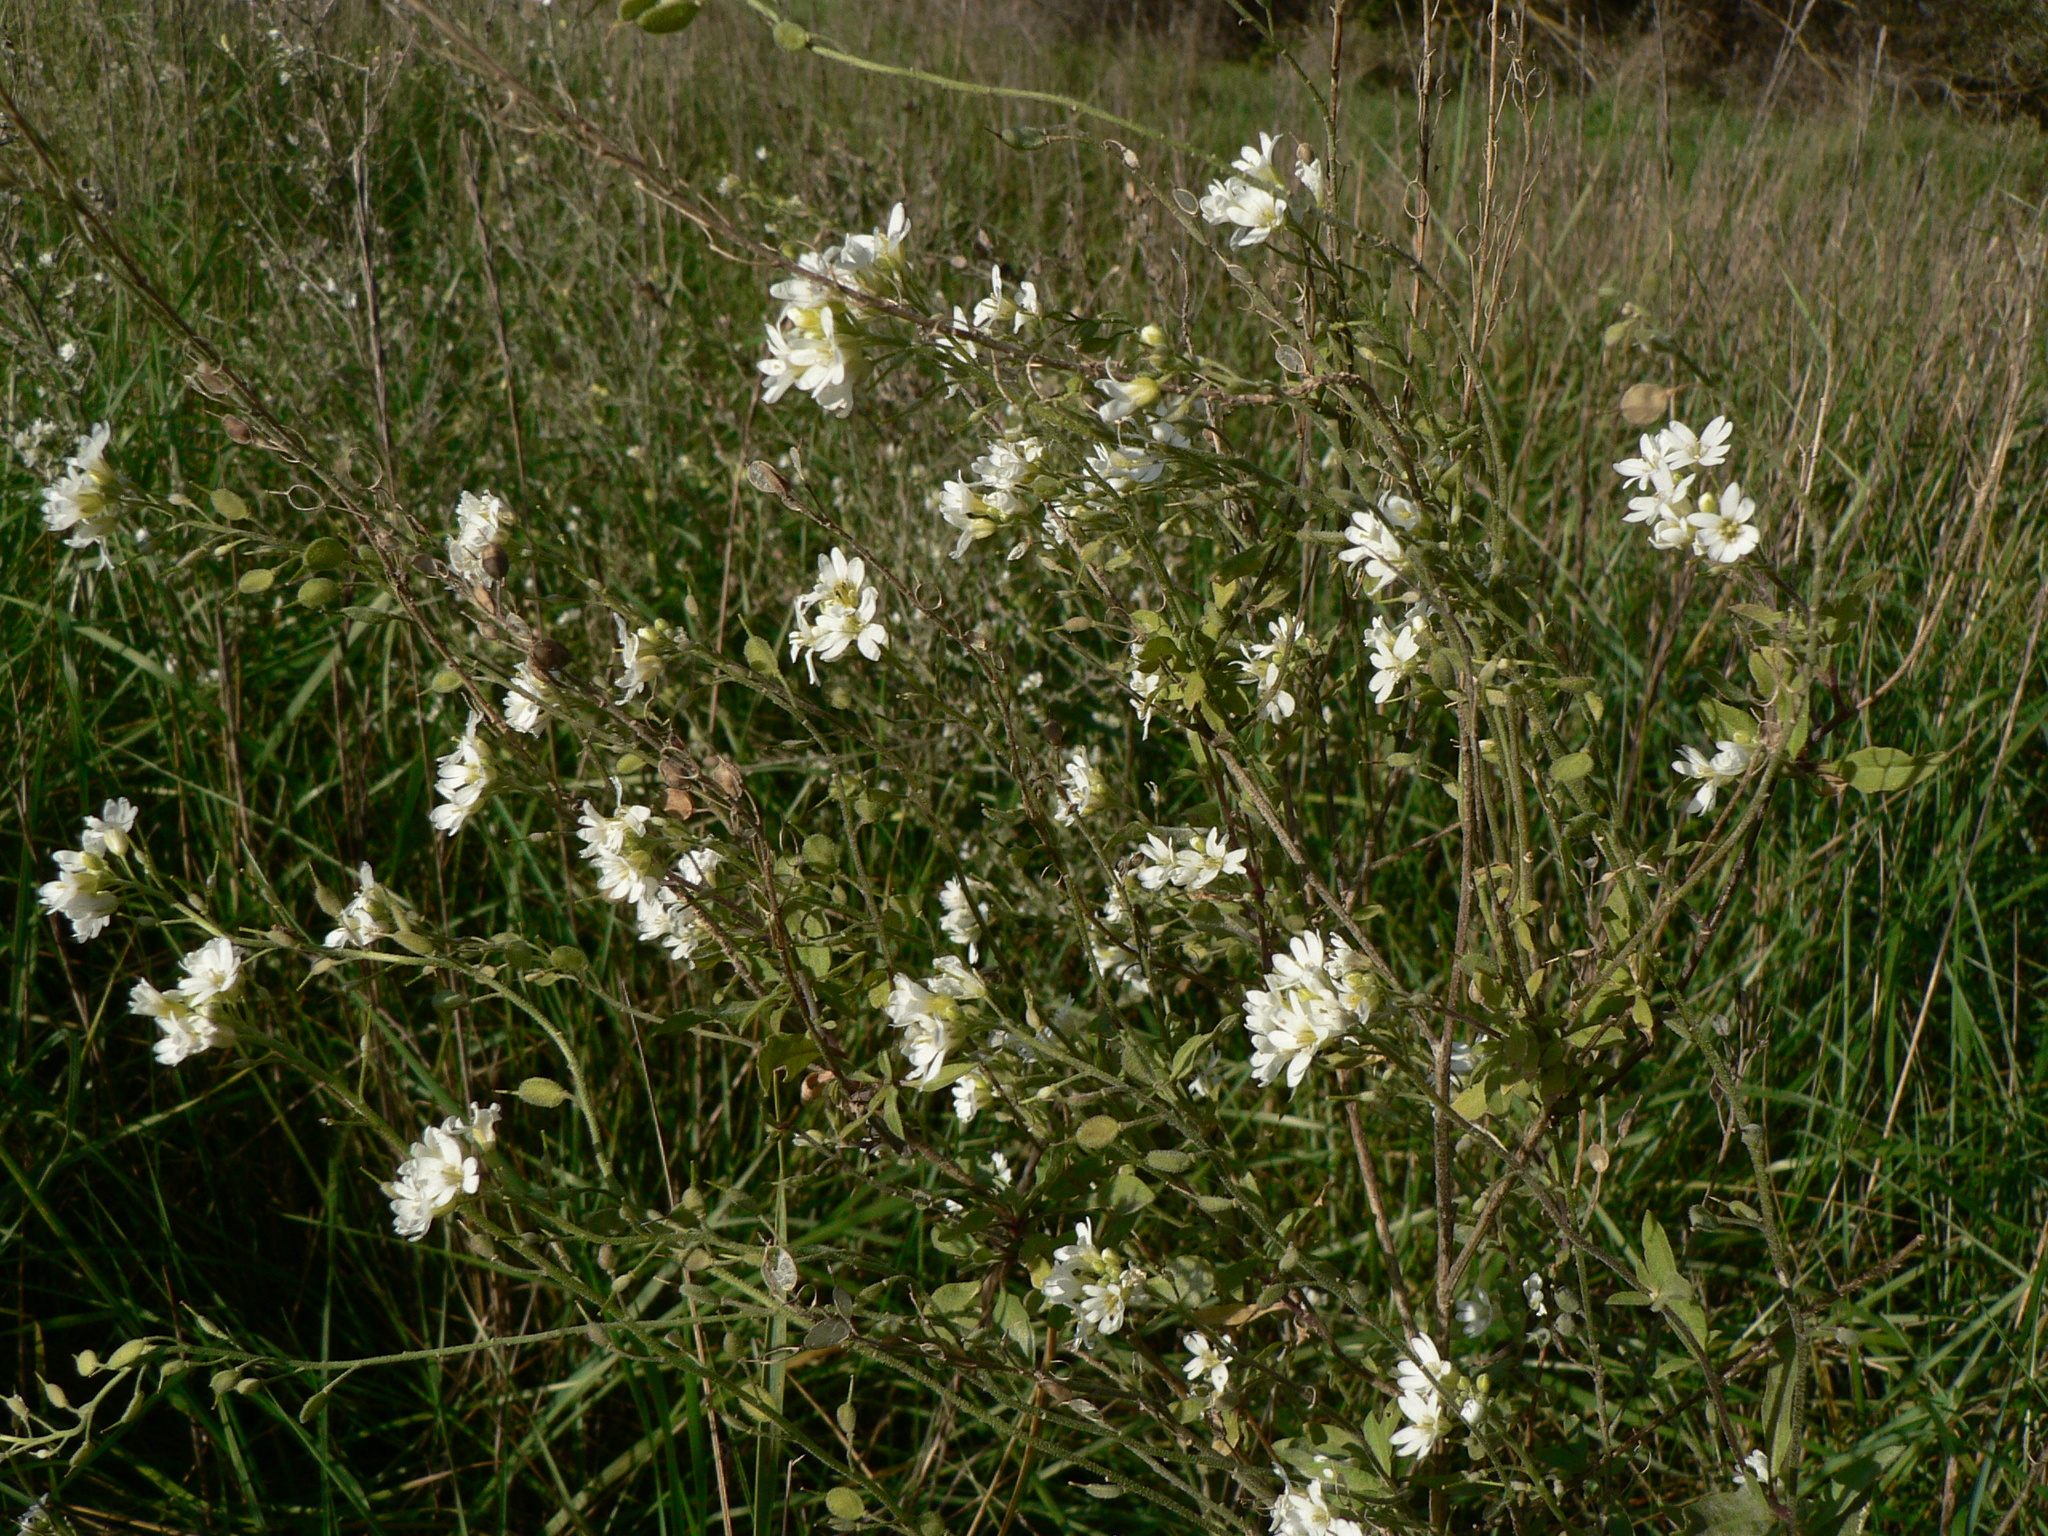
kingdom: Plantae
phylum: Tracheophyta
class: Magnoliopsida
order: Brassicales
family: Brassicaceae
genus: Berteroa
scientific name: Berteroa incana
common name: Hoary alison
